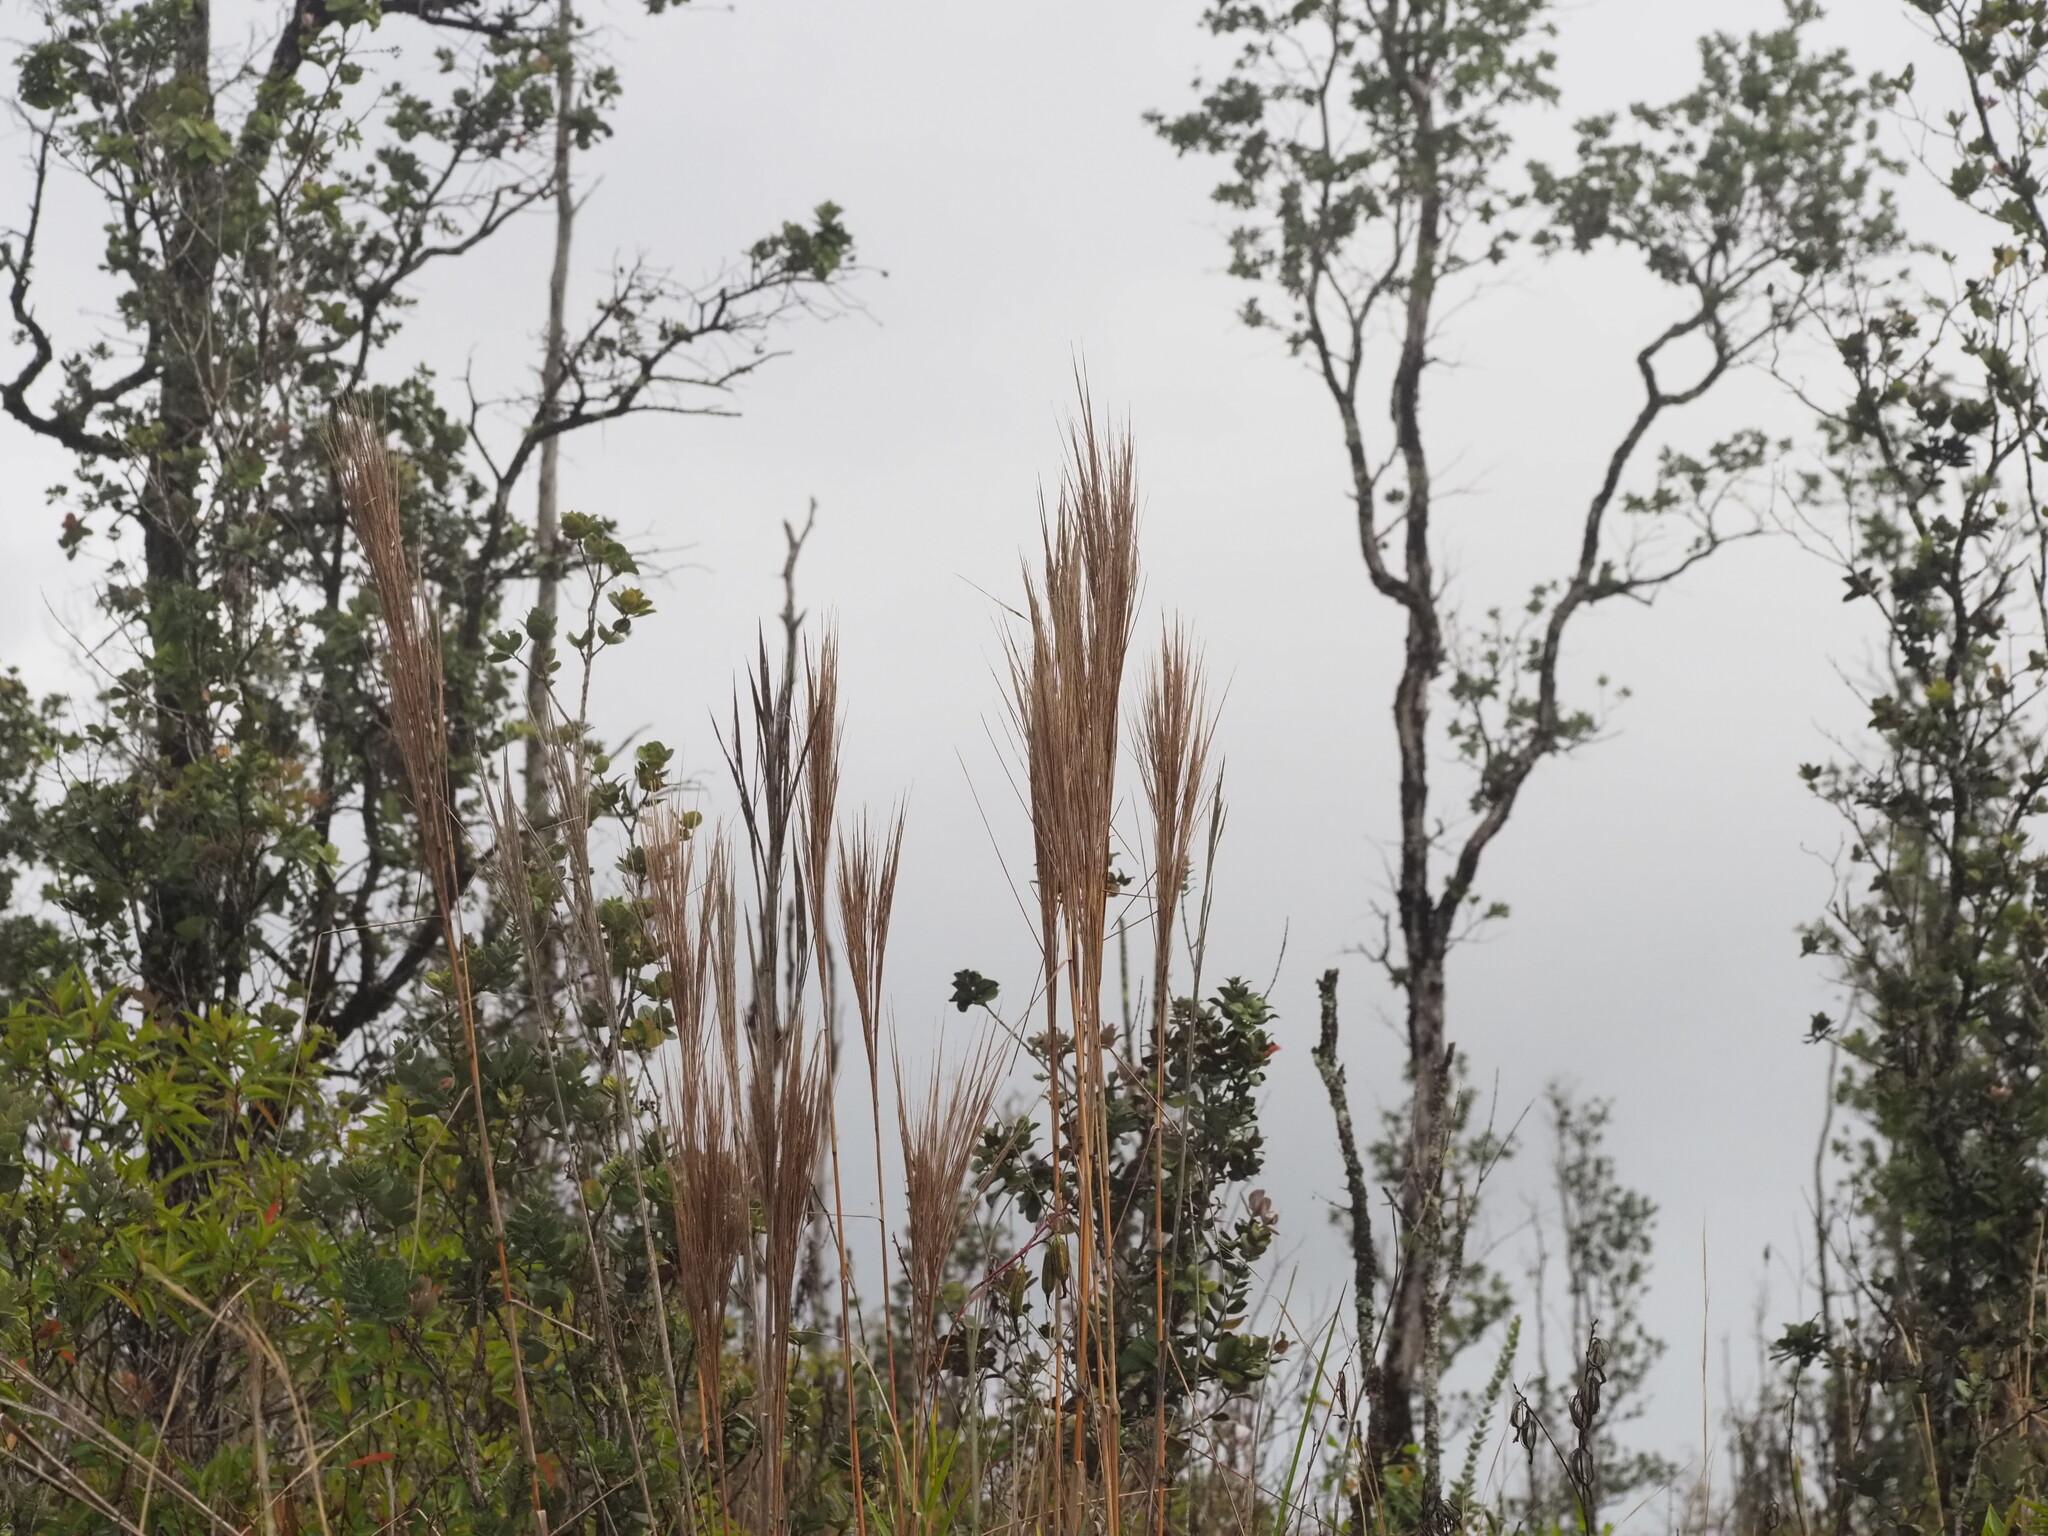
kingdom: Plantae
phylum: Tracheophyta
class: Liliopsida
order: Poales
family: Poaceae
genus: Andropogon
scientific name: Andropogon bicornis
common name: West indian foxtail grass
